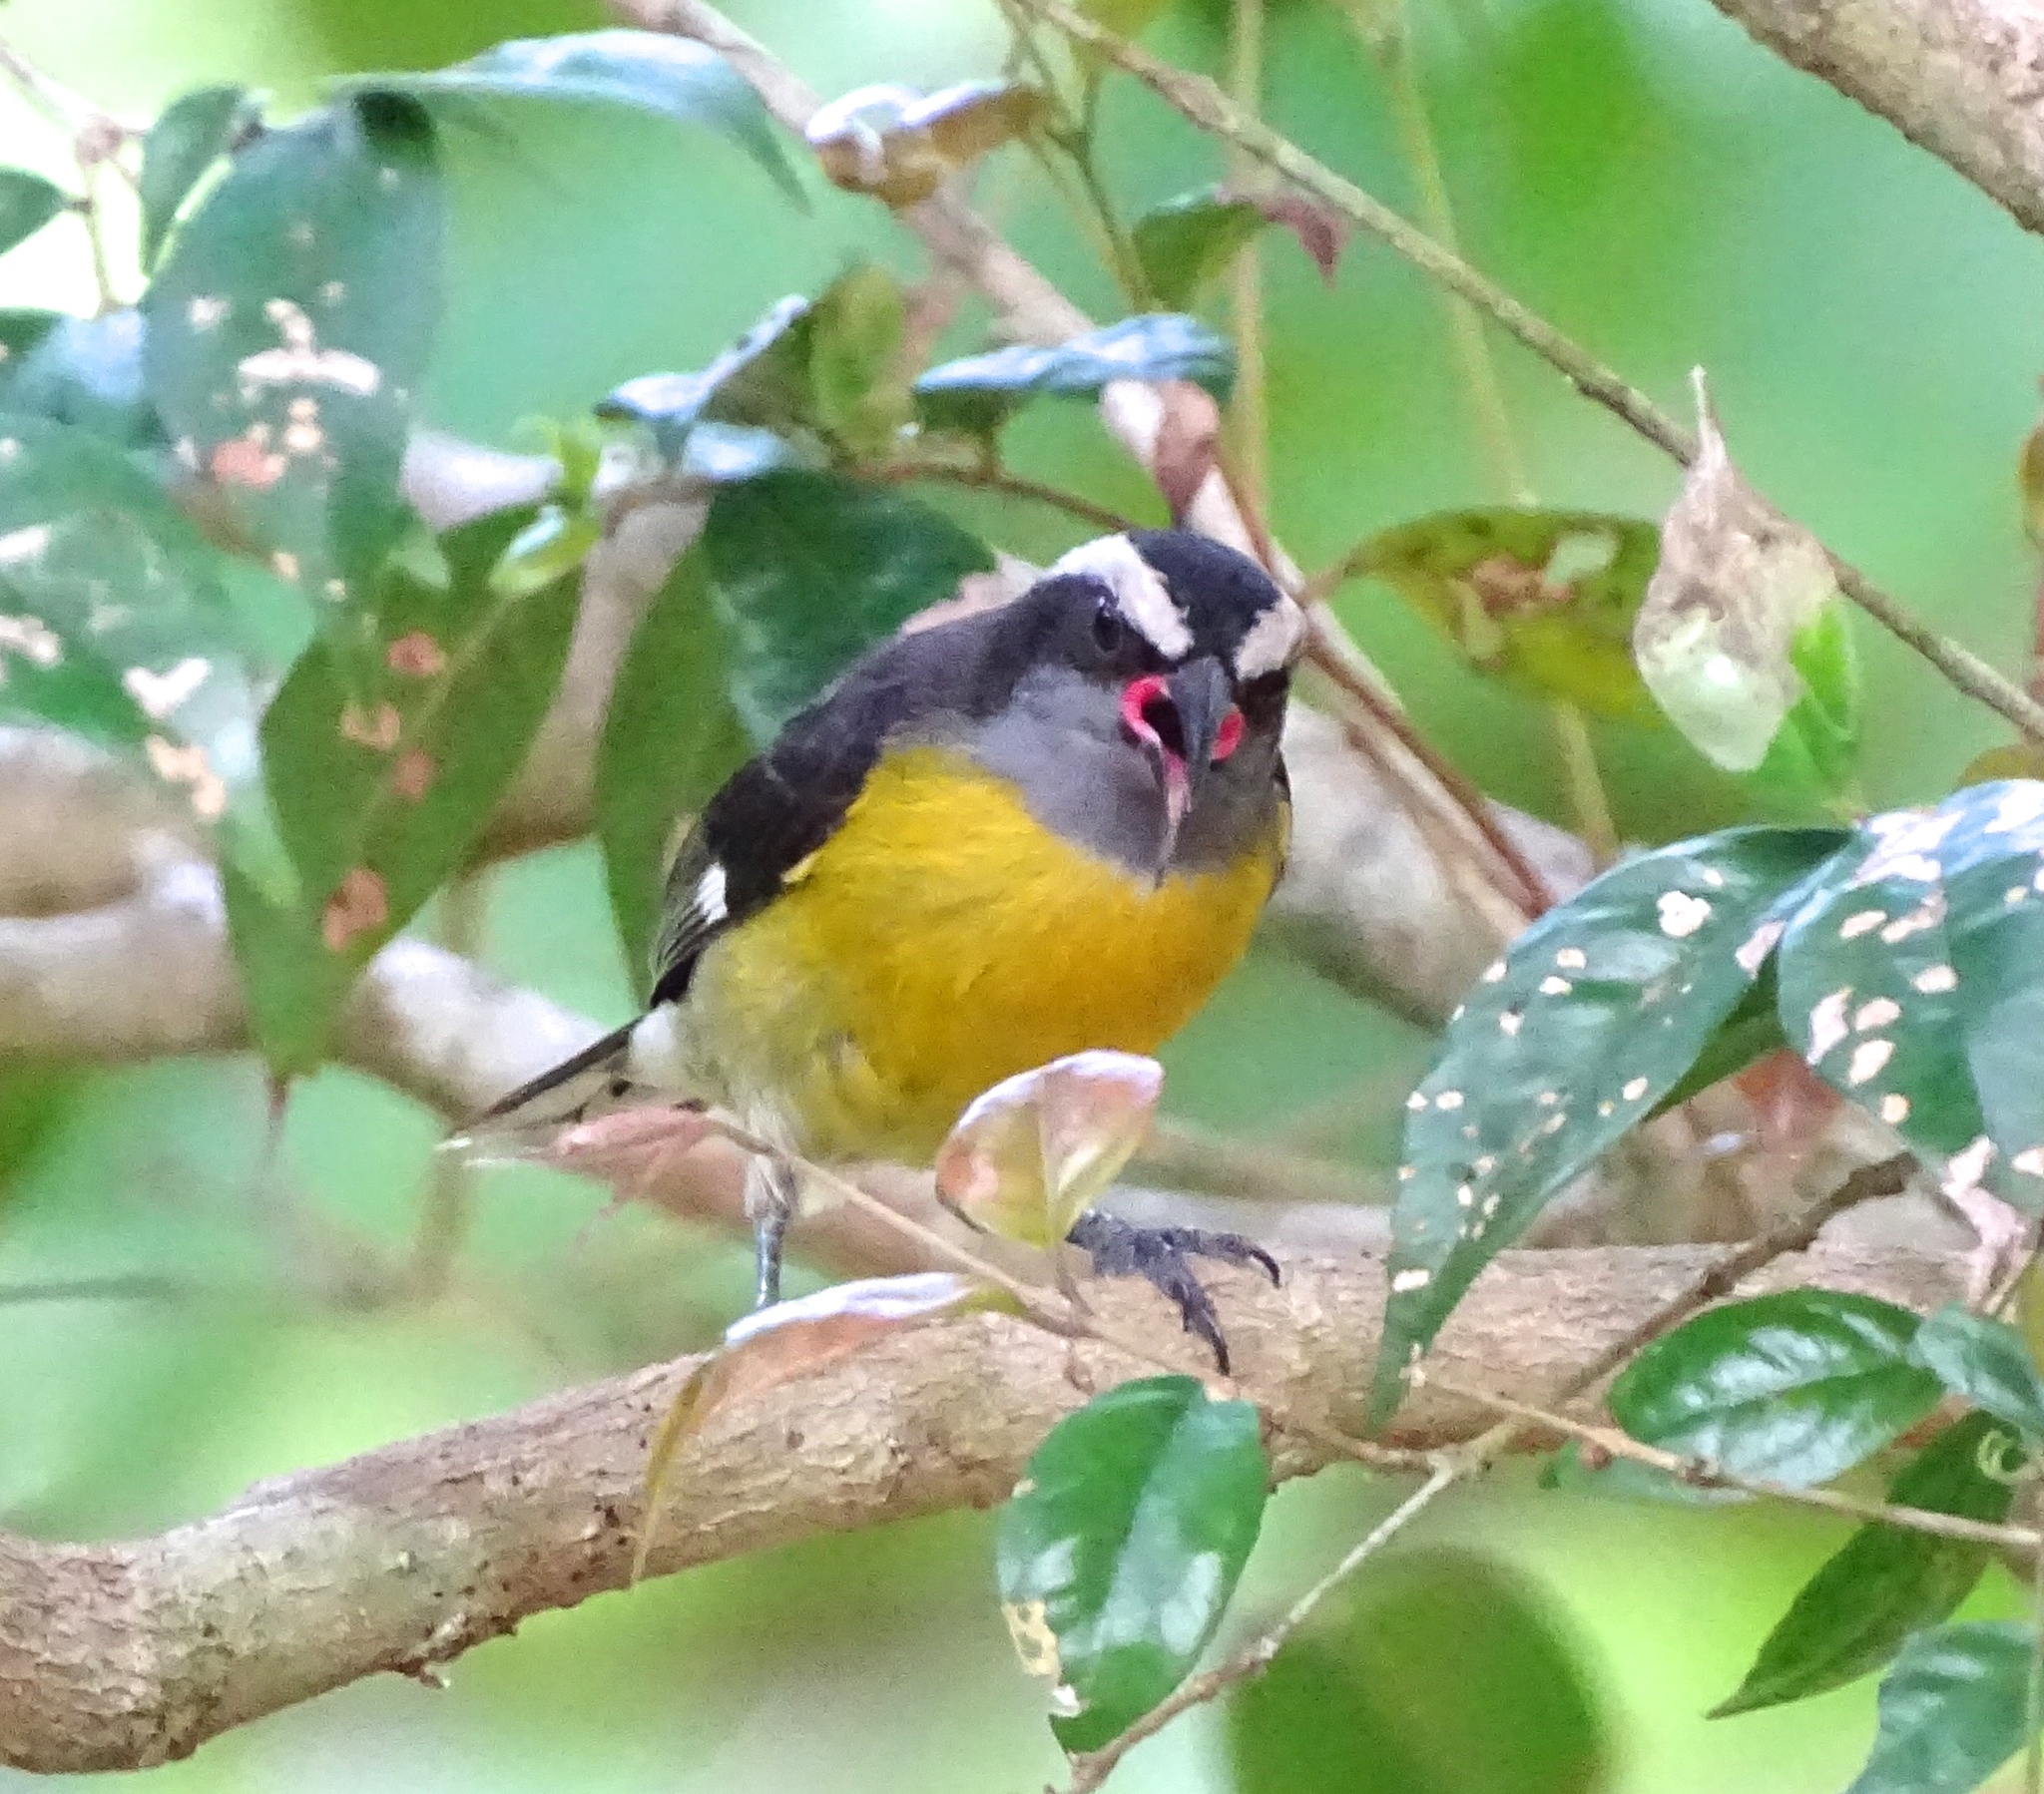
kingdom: Animalia
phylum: Chordata
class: Aves
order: Passeriformes
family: Thraupidae
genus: Coereba
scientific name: Coereba flaveola
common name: Bananaquit
